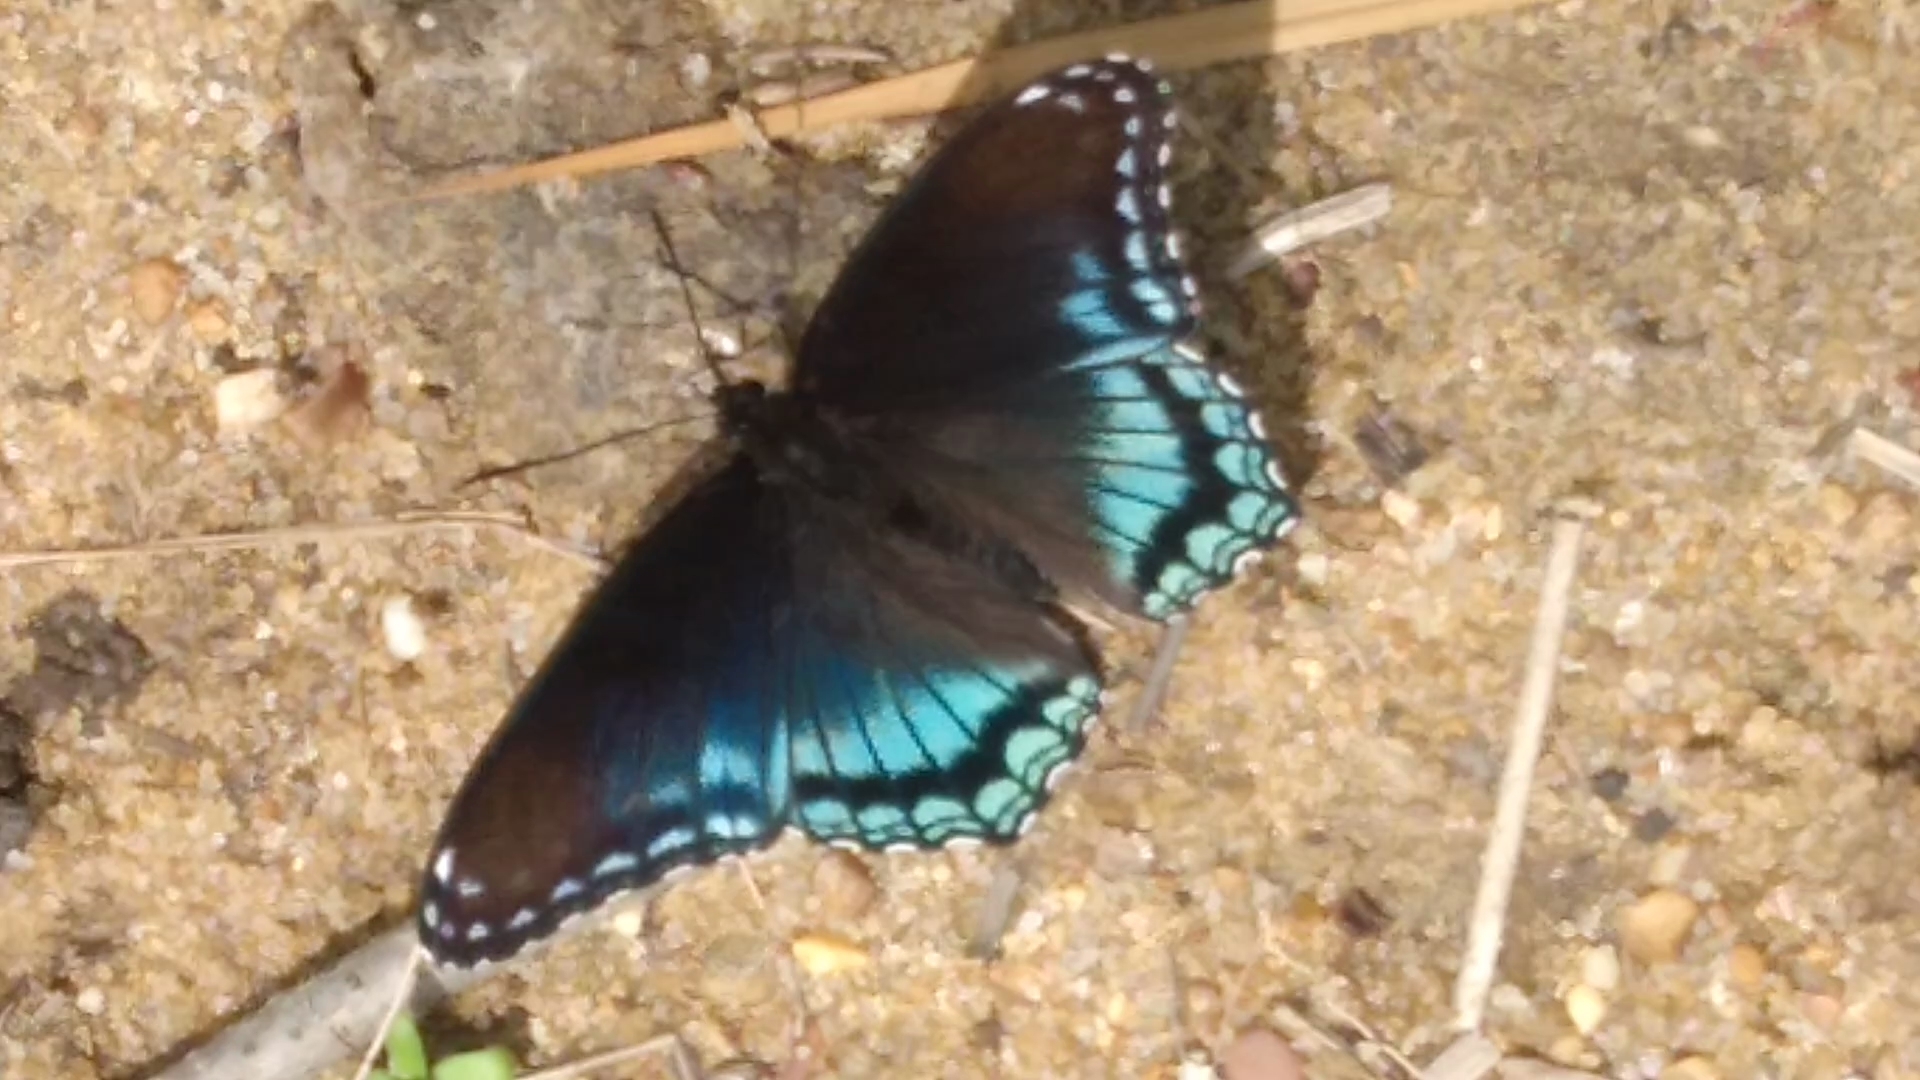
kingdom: Animalia
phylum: Arthropoda
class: Insecta
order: Lepidoptera
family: Nymphalidae
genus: Limenitis
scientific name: Limenitis astyanax
